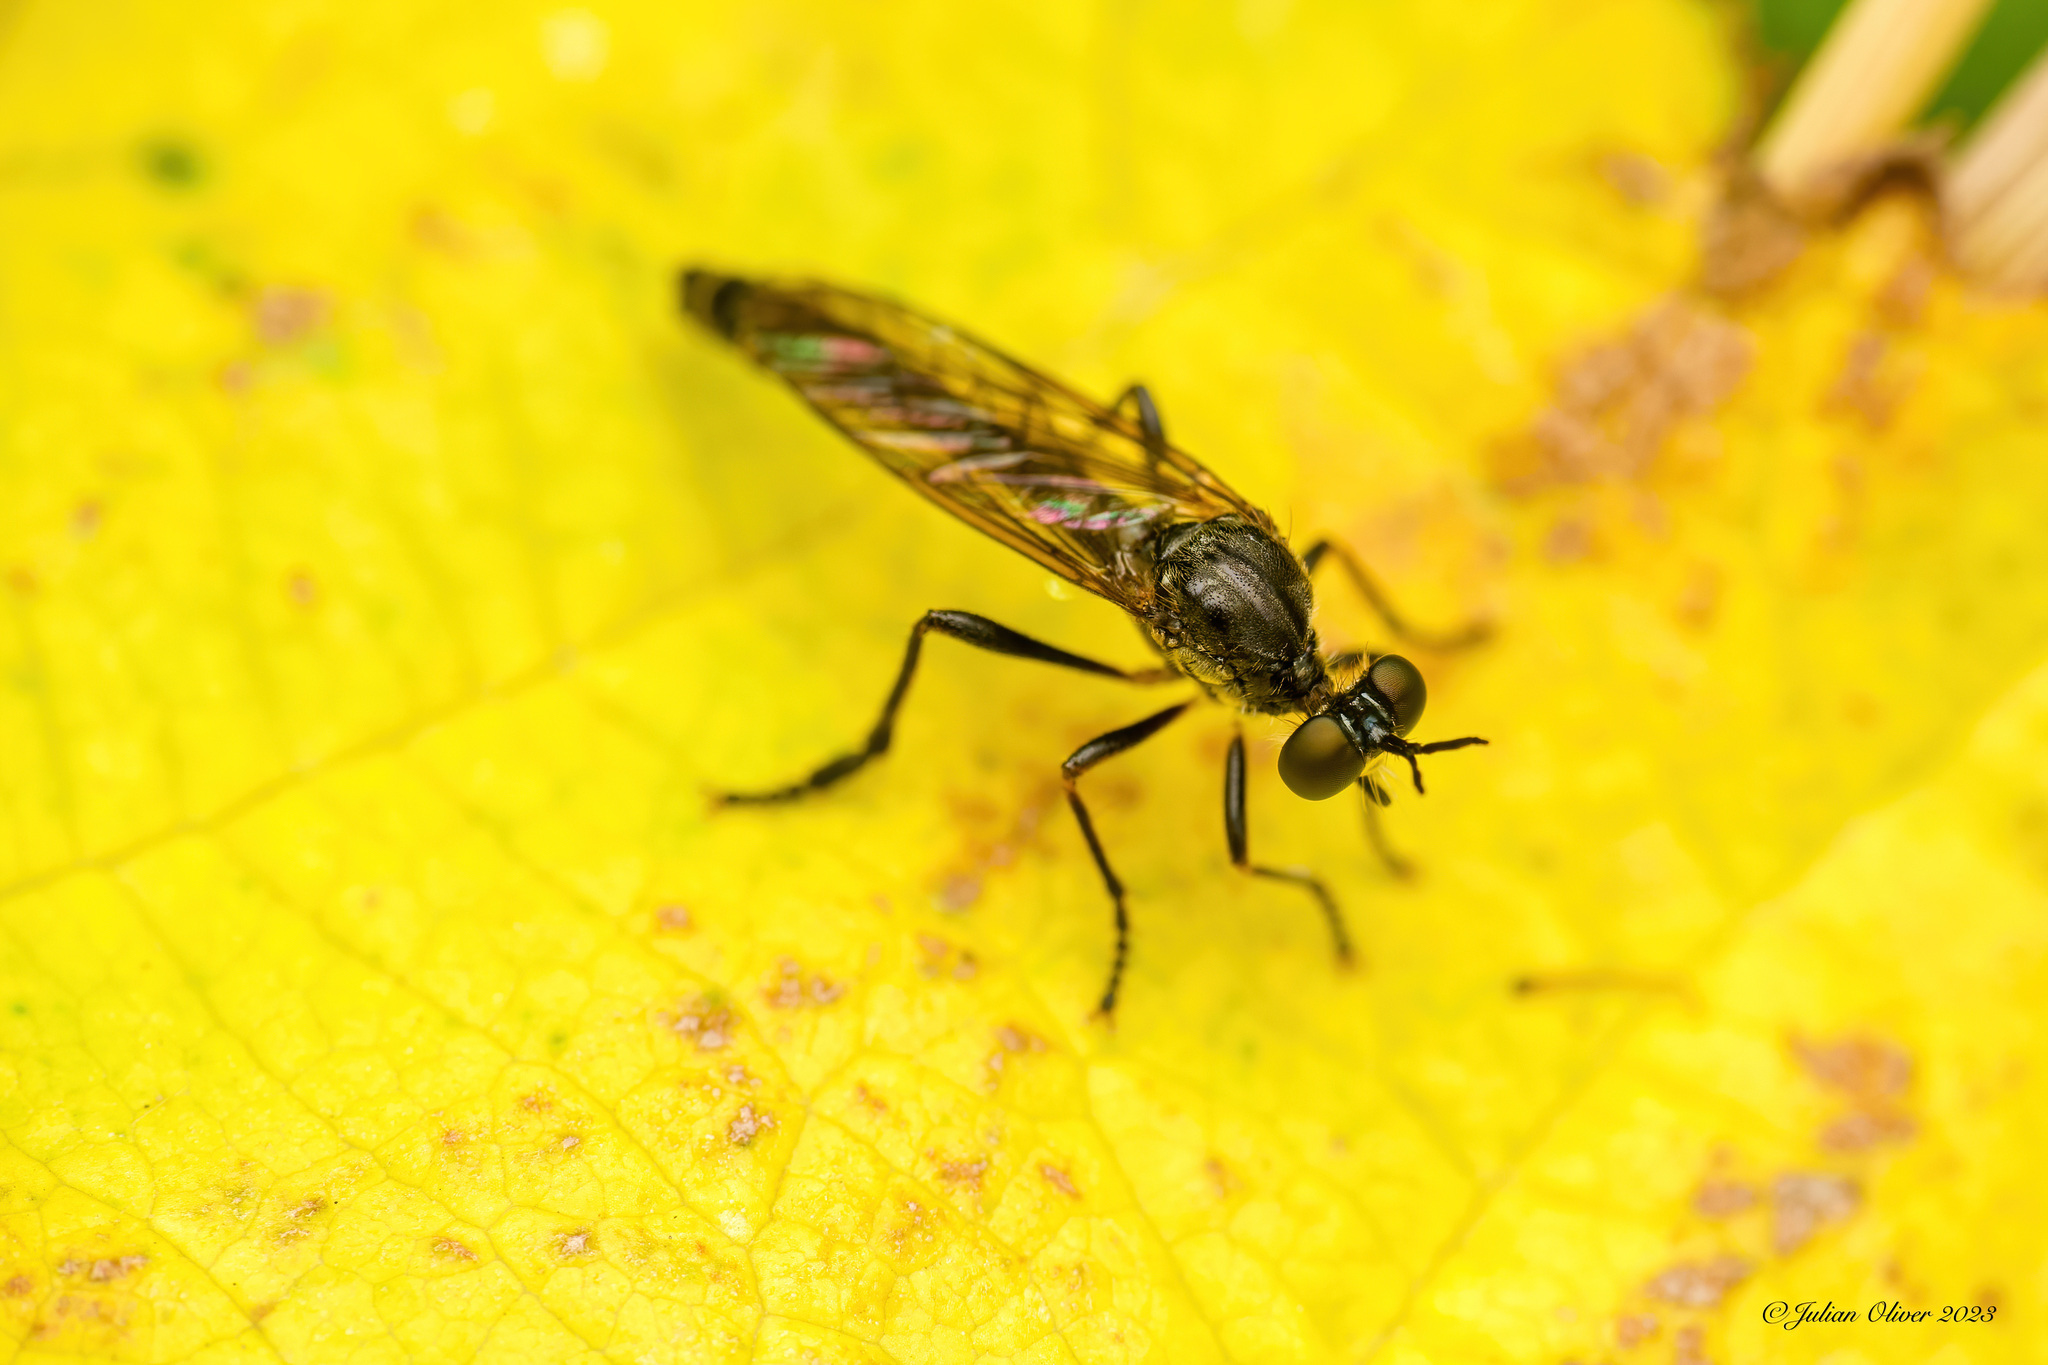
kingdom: Animalia
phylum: Arthropoda
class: Insecta
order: Diptera
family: Asilidae
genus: Dioctria
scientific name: Dioctria hyalipennis
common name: Stripe-legged robberfly
